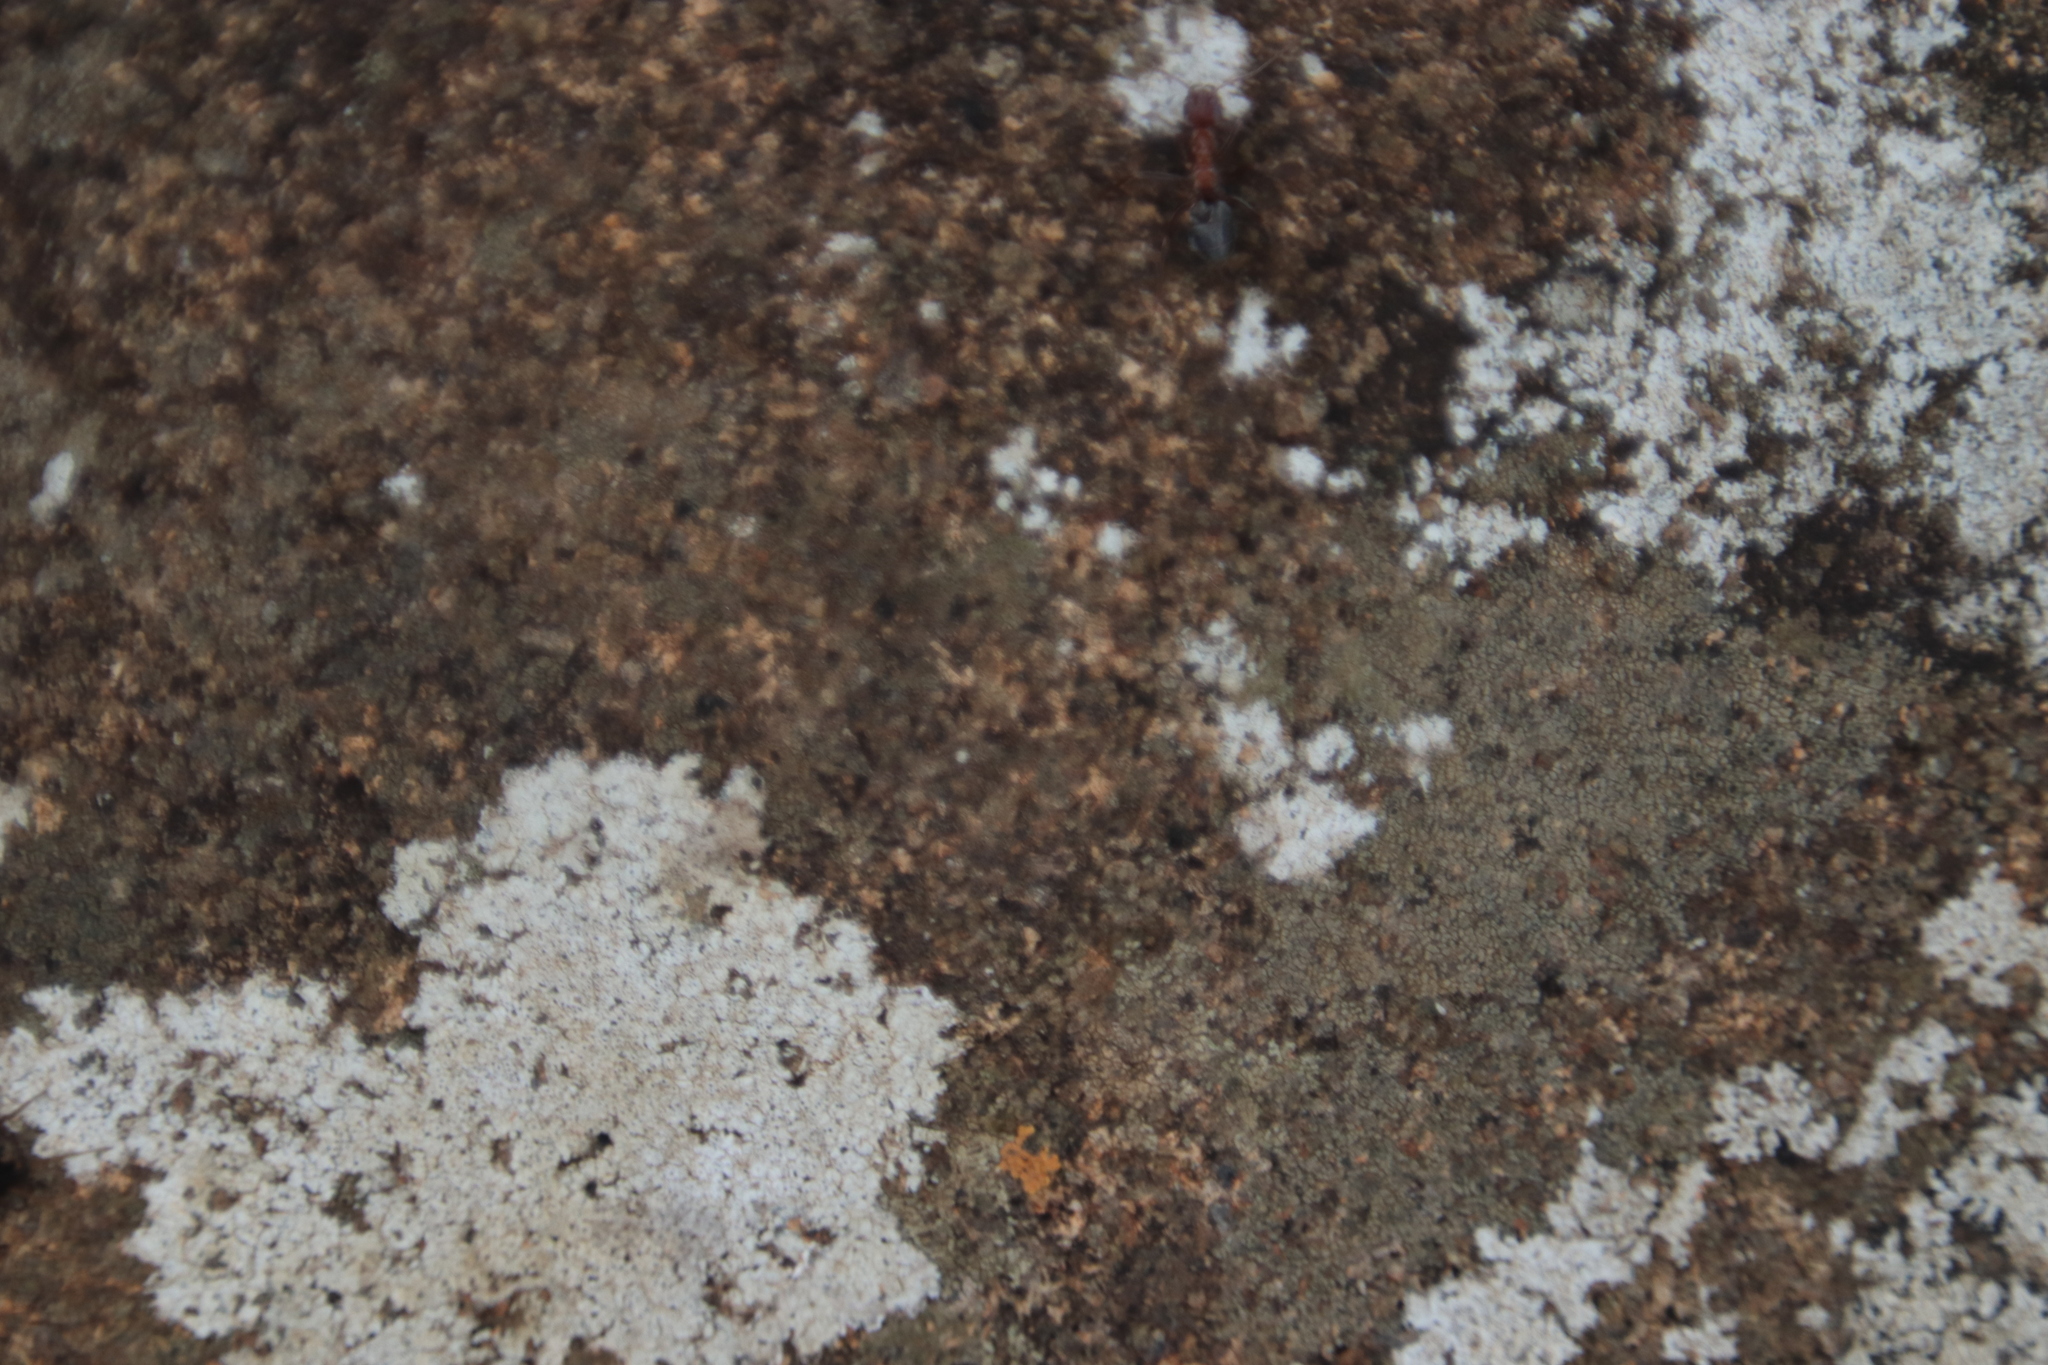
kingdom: Animalia
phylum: Arthropoda
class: Insecta
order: Hymenoptera
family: Formicidae
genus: Anoplolepis
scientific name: Anoplolepis custodiens
